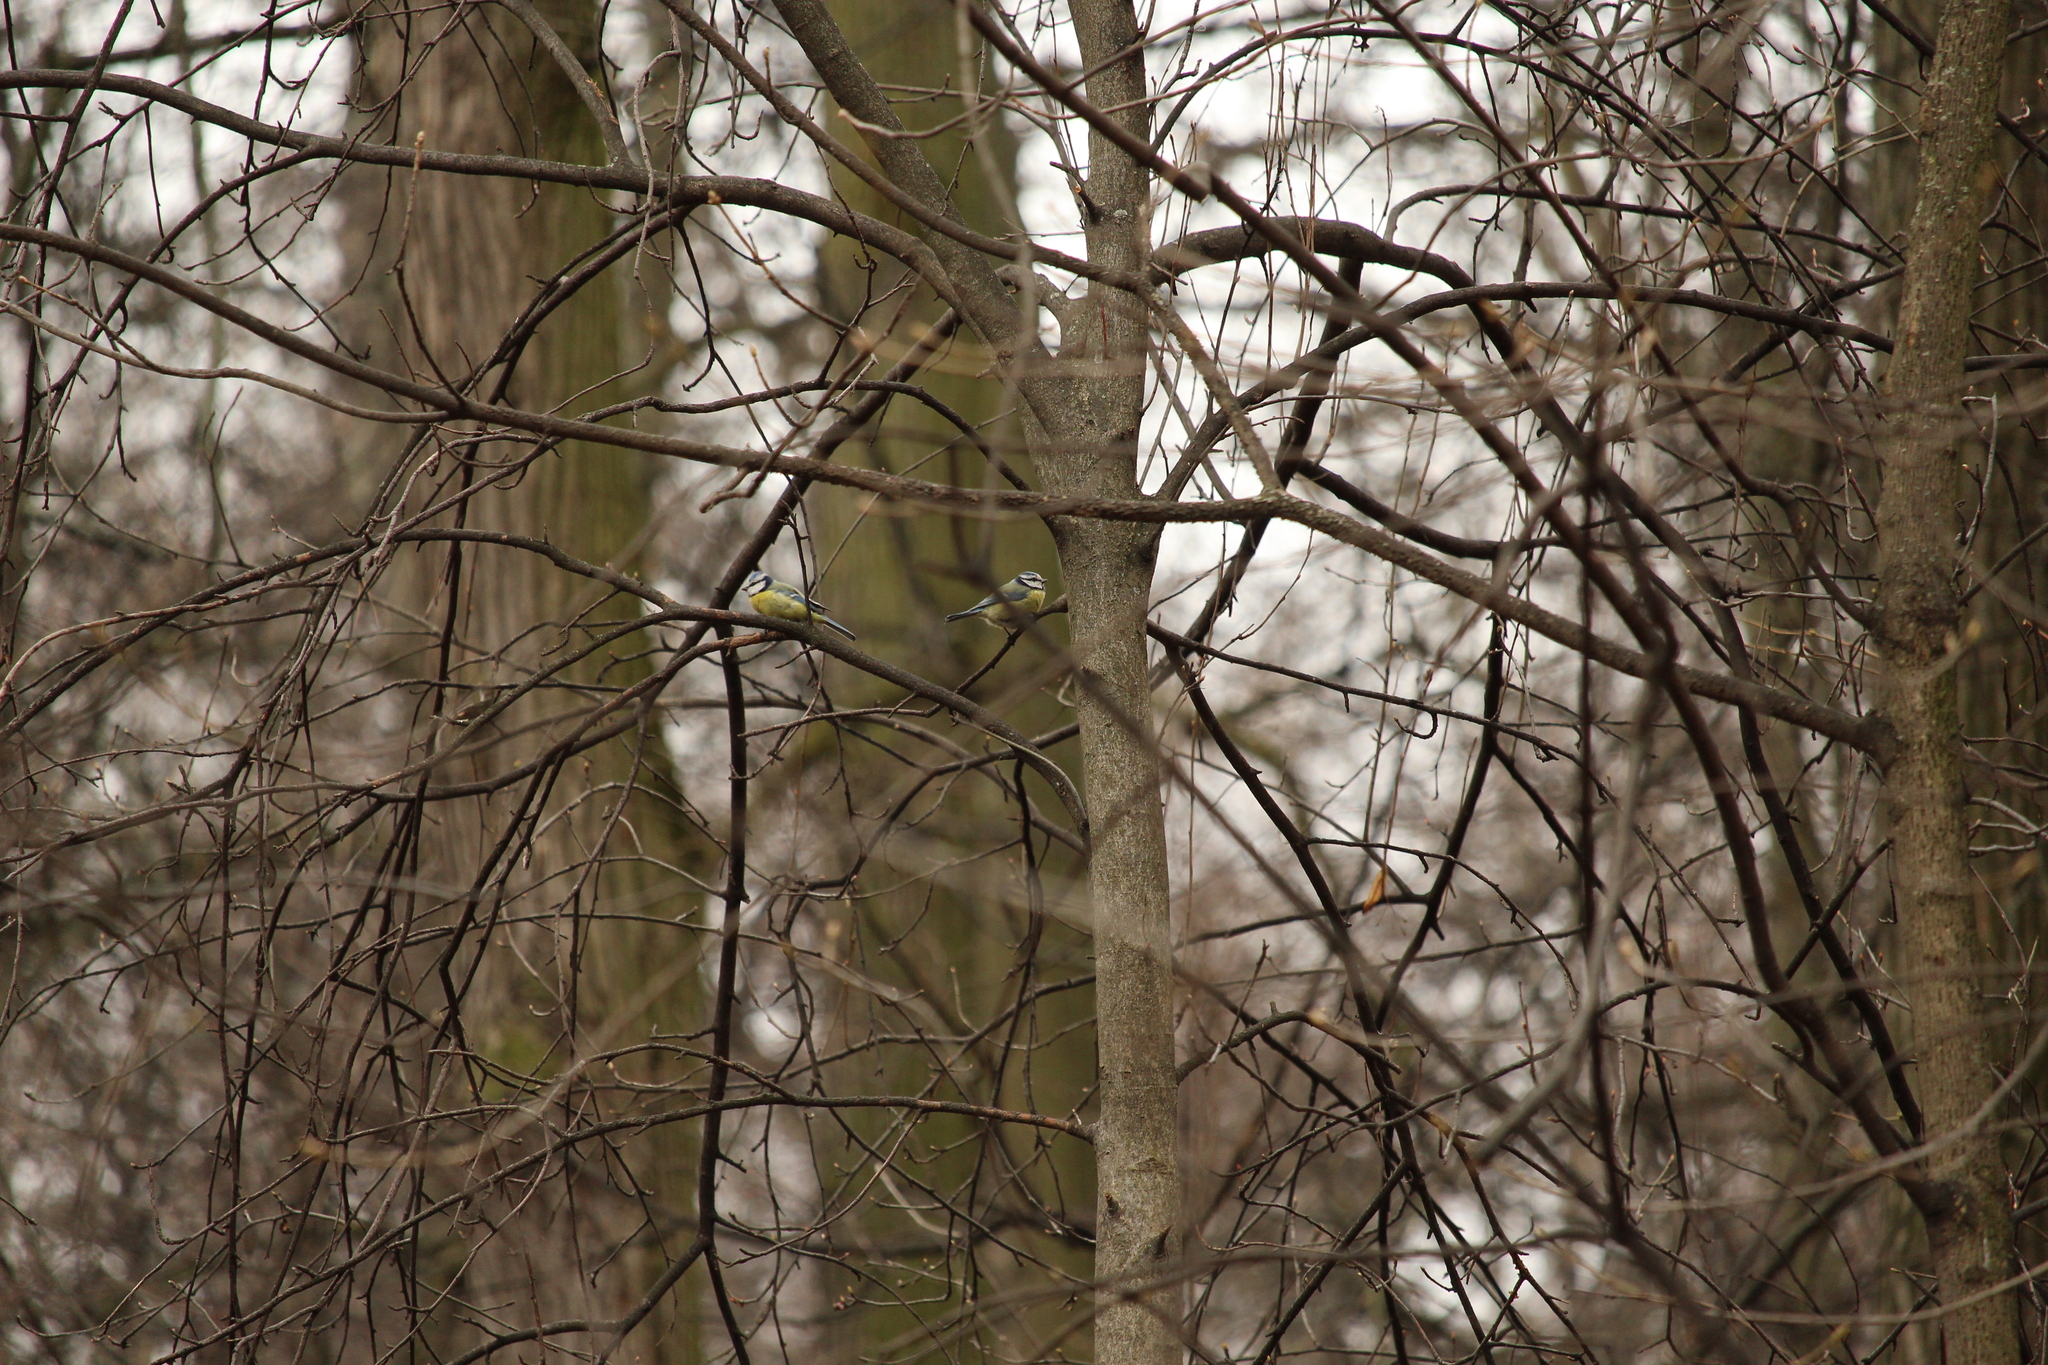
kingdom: Animalia
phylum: Chordata
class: Aves
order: Passeriformes
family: Paridae
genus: Cyanistes
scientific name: Cyanistes caeruleus
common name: Eurasian blue tit
